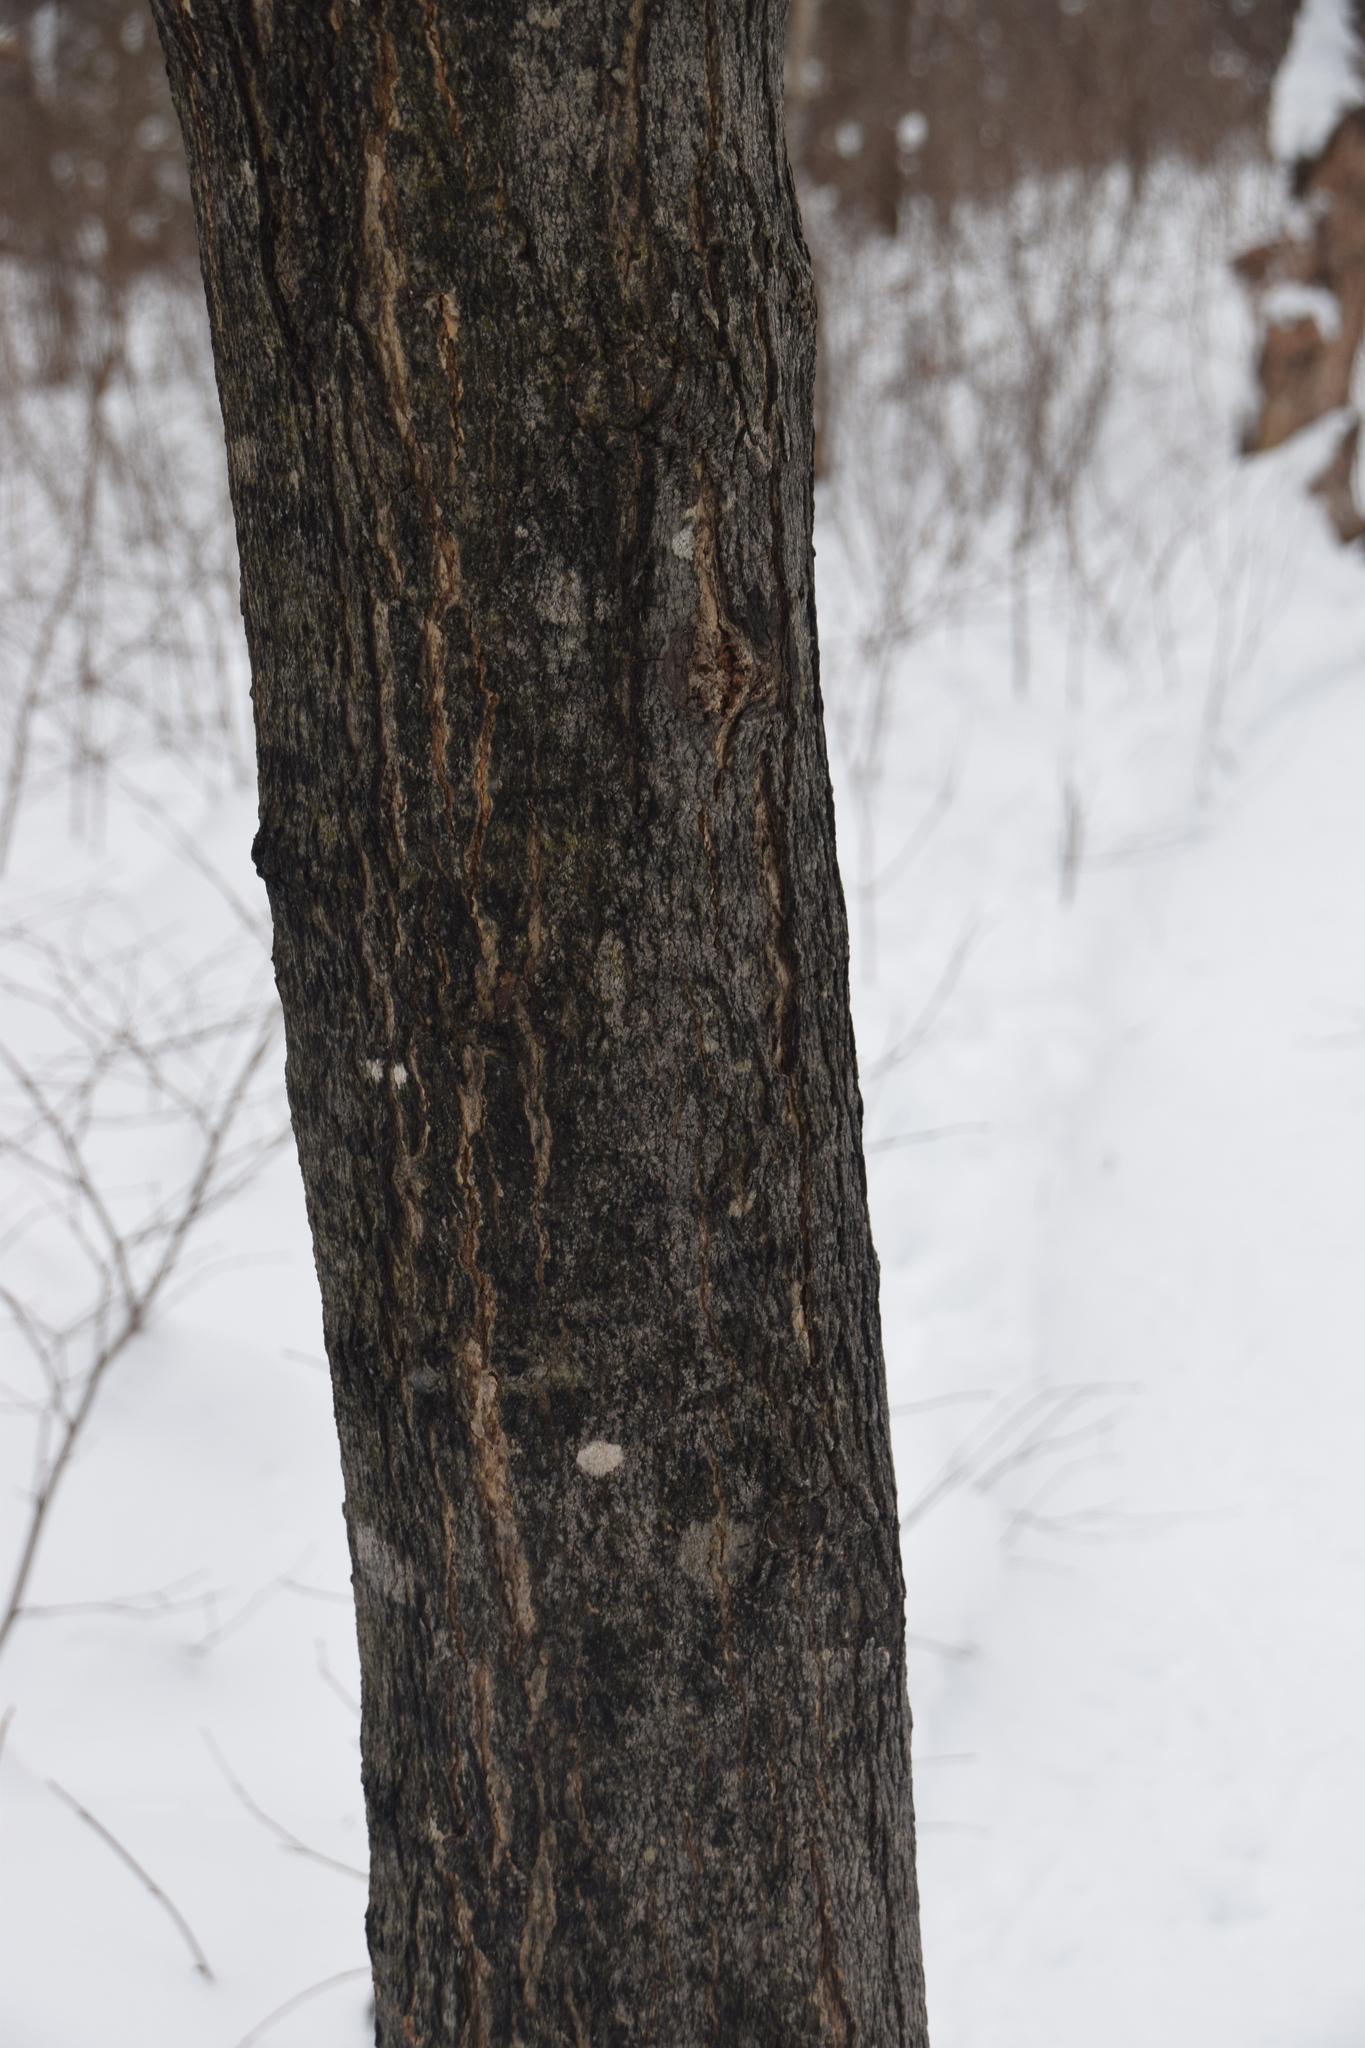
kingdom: Plantae
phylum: Tracheophyta
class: Magnoliopsida
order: Sapindales
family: Sapindaceae
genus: Acer
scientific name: Acer saccharum
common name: Sugar maple
